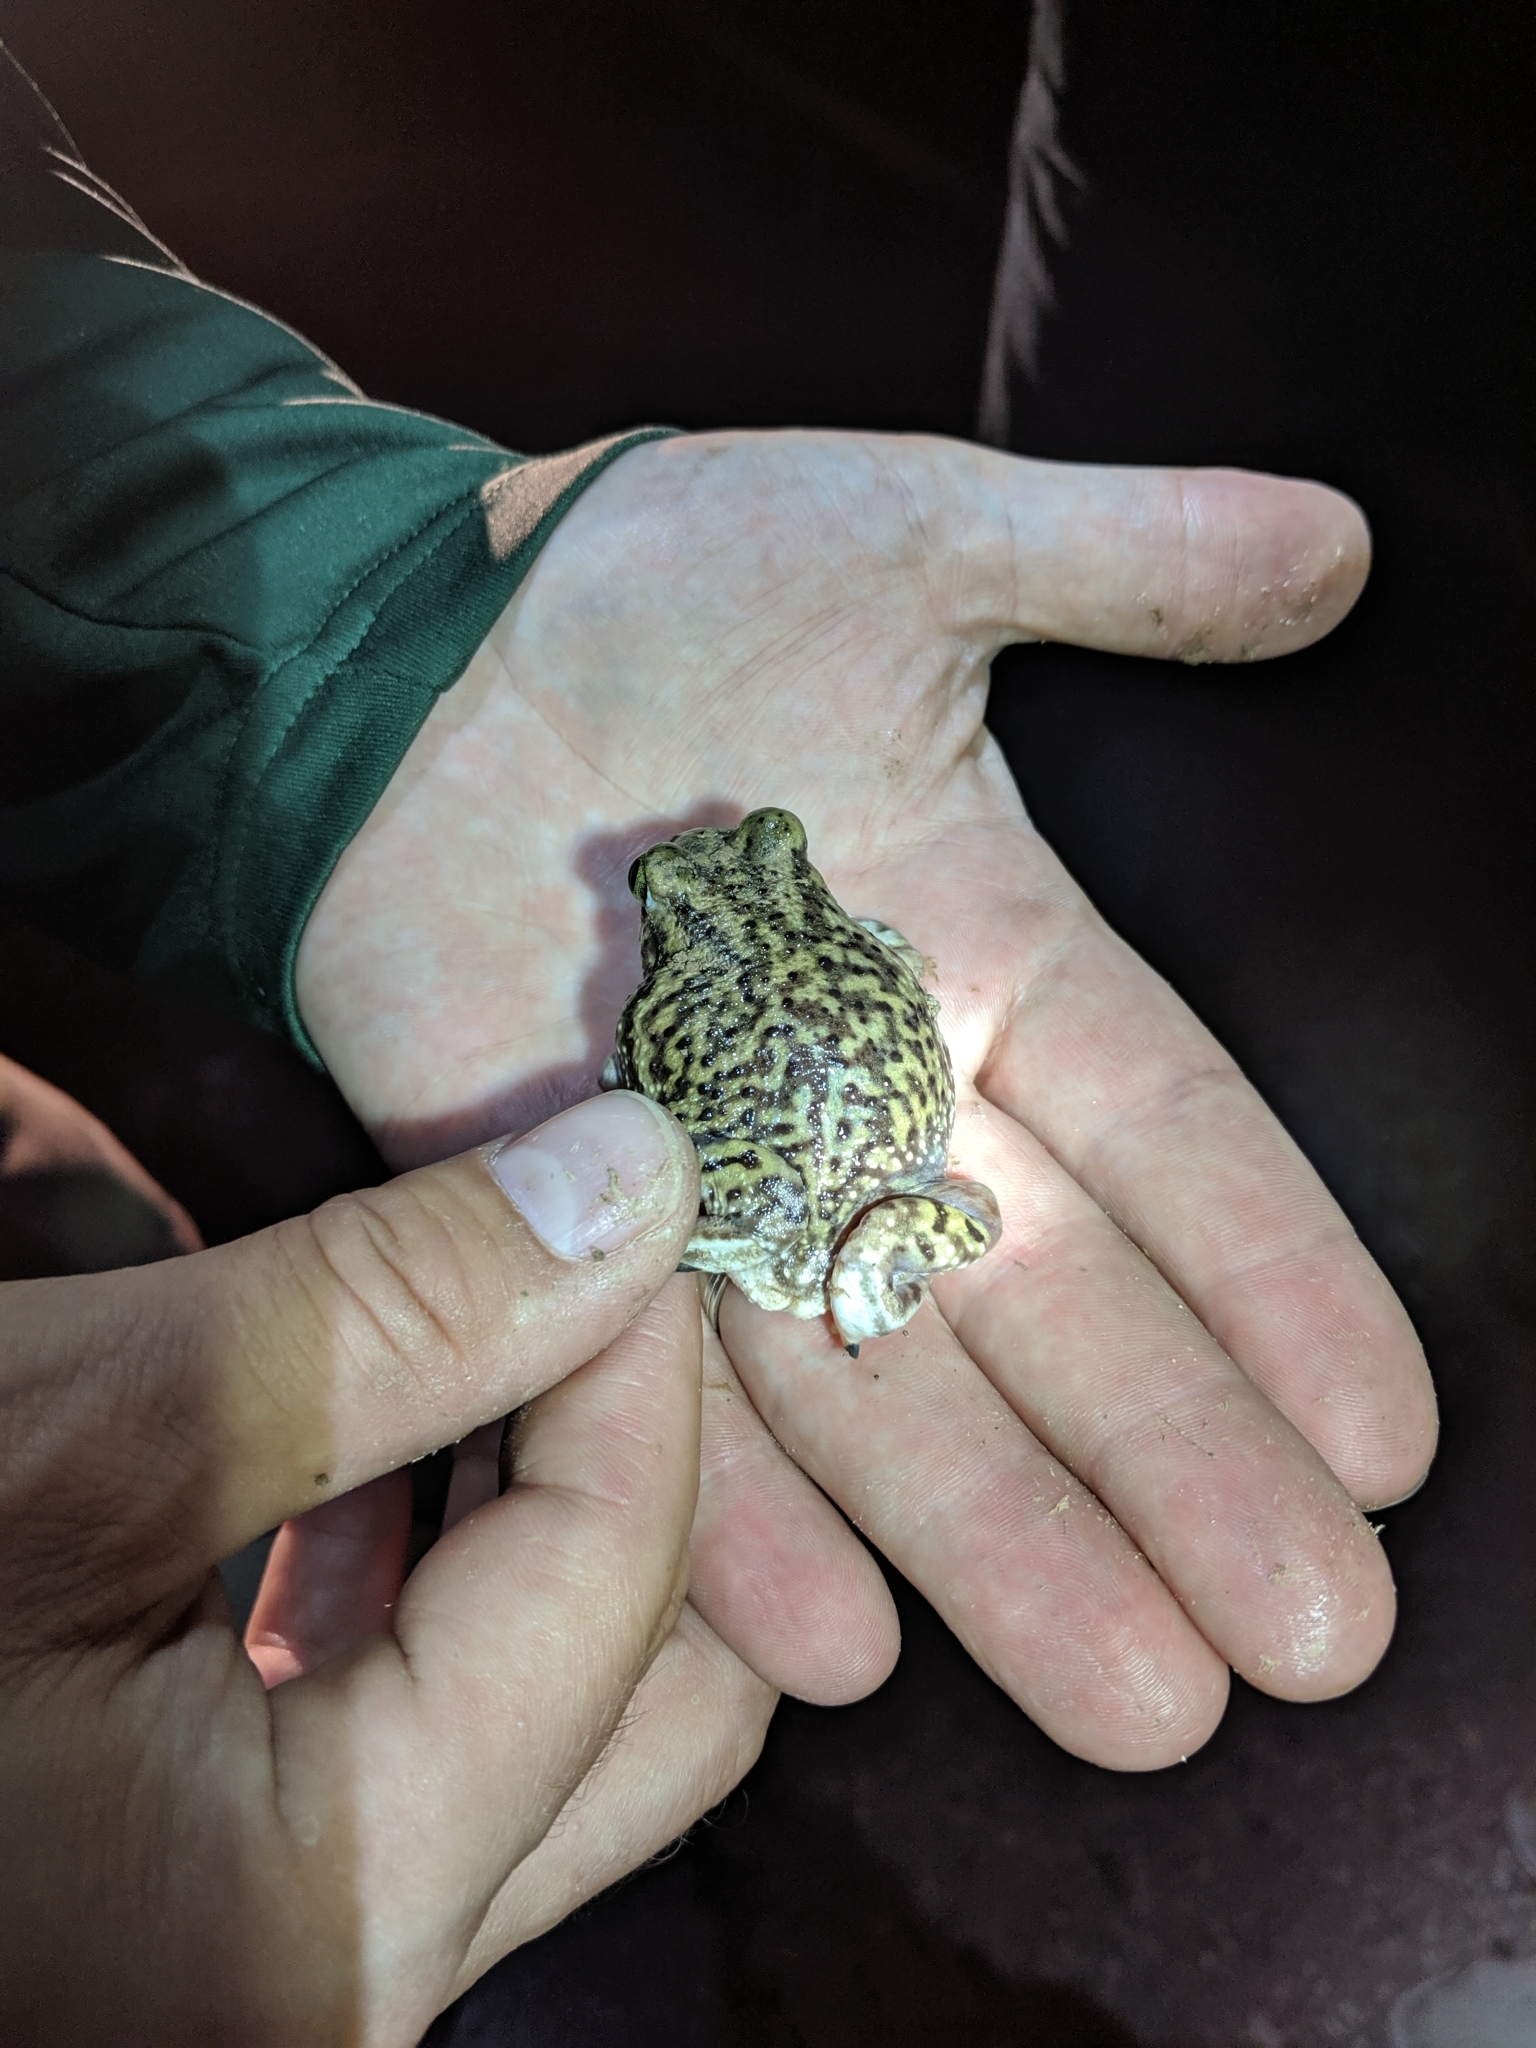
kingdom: Animalia
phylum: Chordata
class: Amphibia
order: Anura
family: Scaphiopodidae
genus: Scaphiopus
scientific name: Scaphiopus couchii
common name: Couch's spadefoot toad
